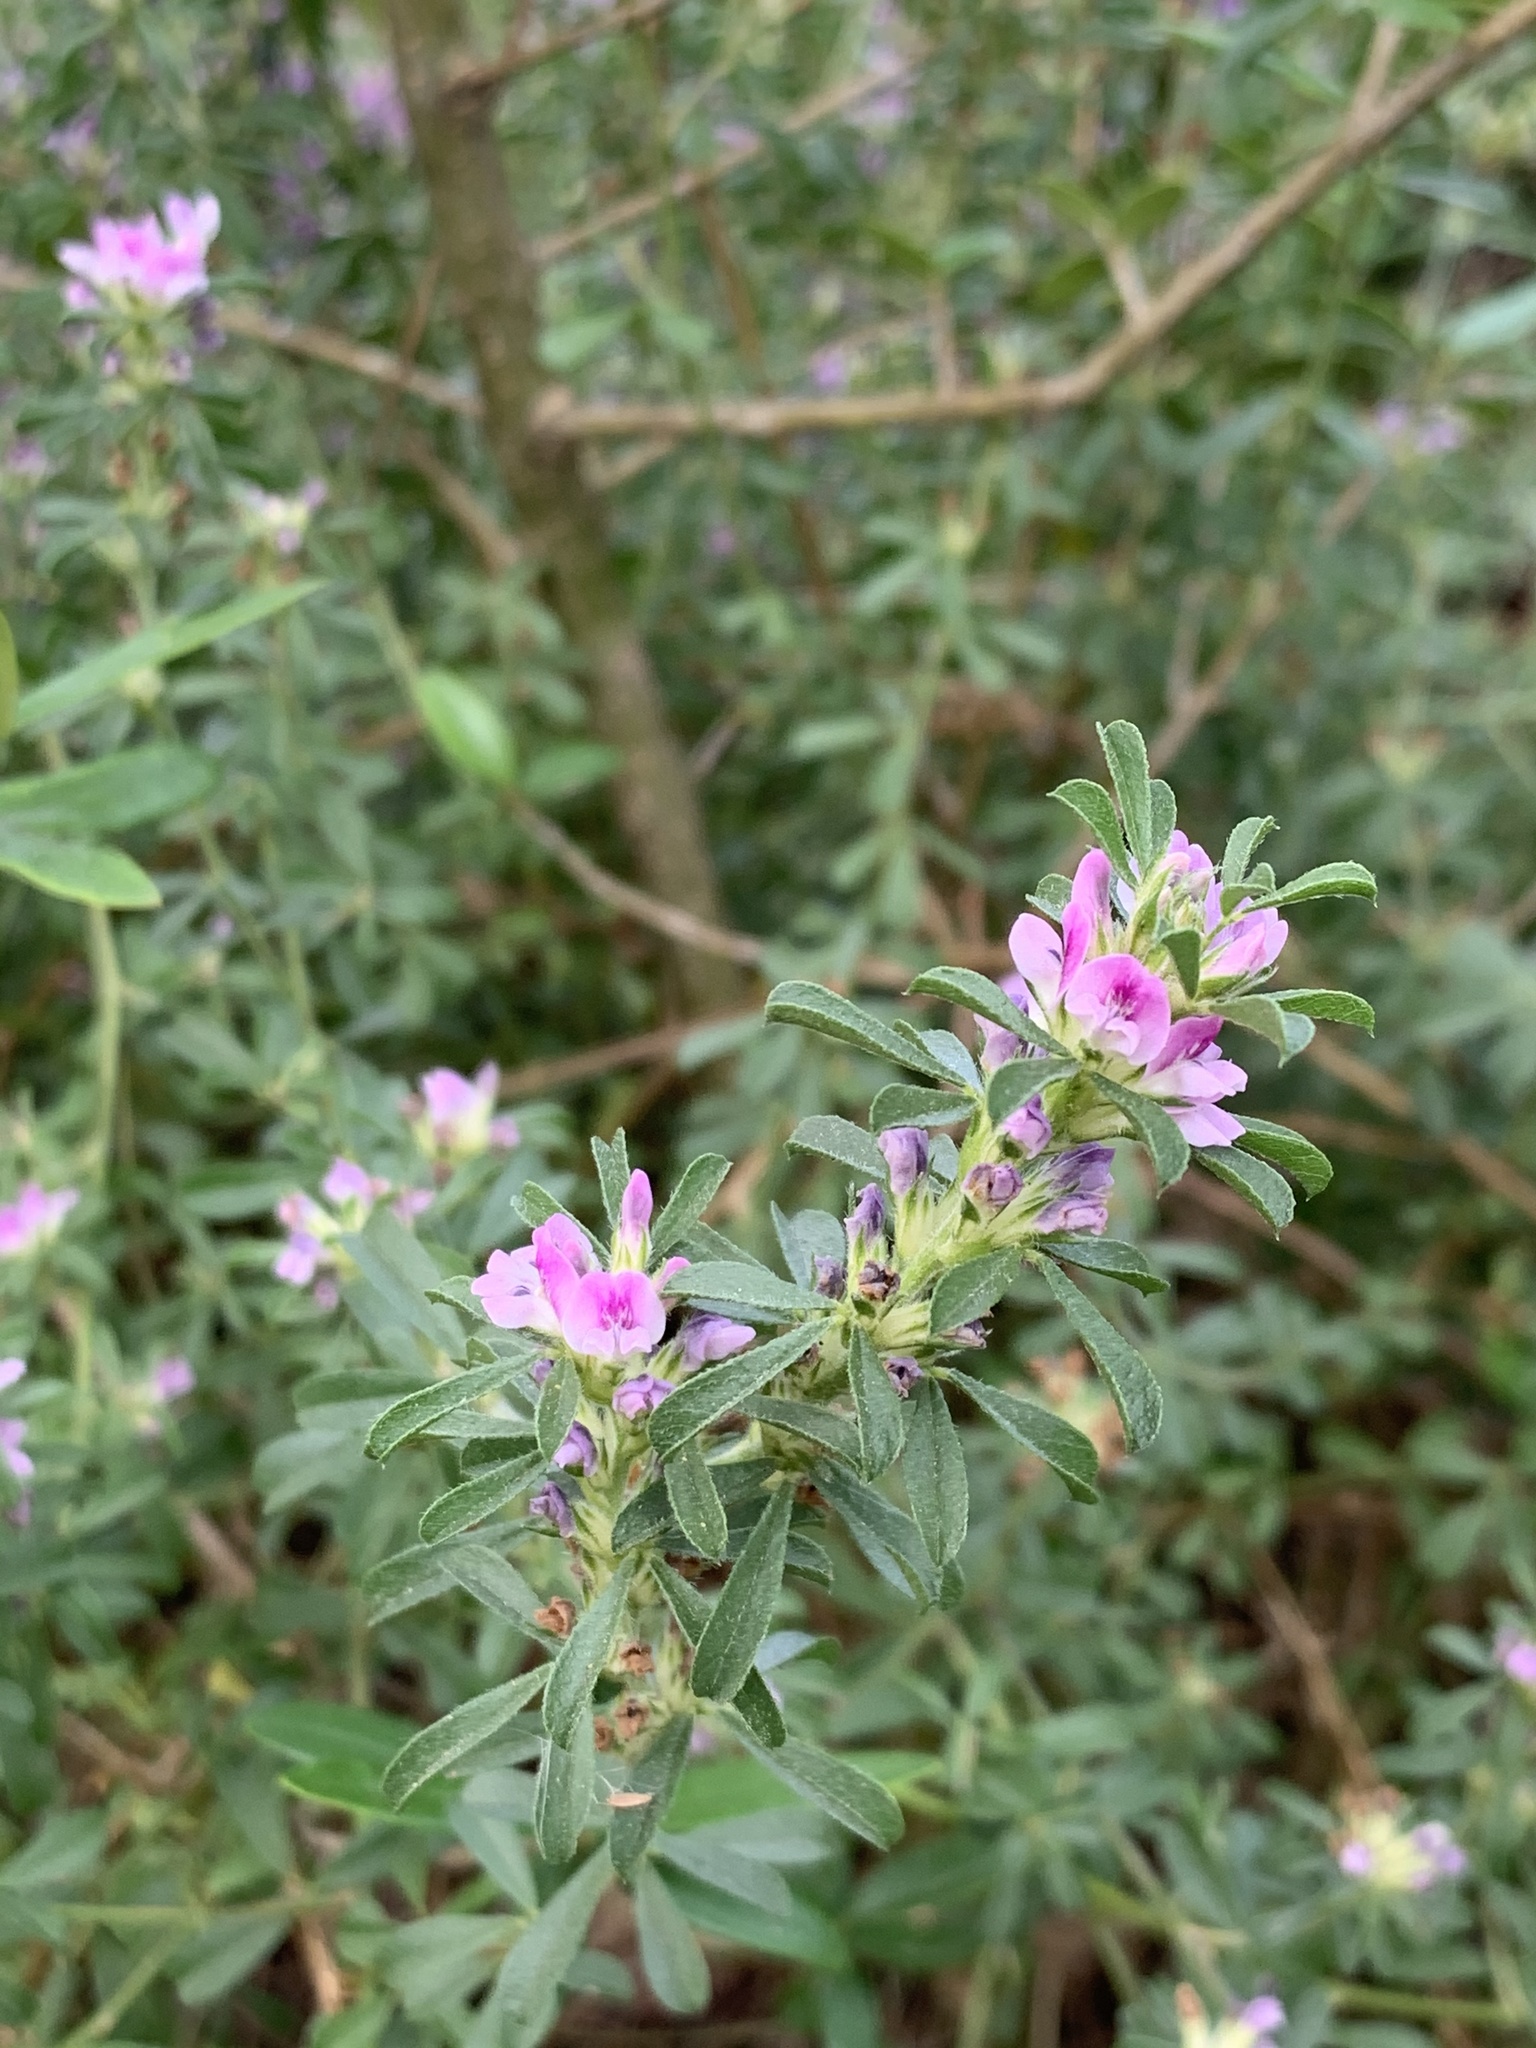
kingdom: Plantae
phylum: Tracheophyta
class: Magnoliopsida
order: Fabales
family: Fabaceae
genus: Psoralea
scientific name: Psoralea
